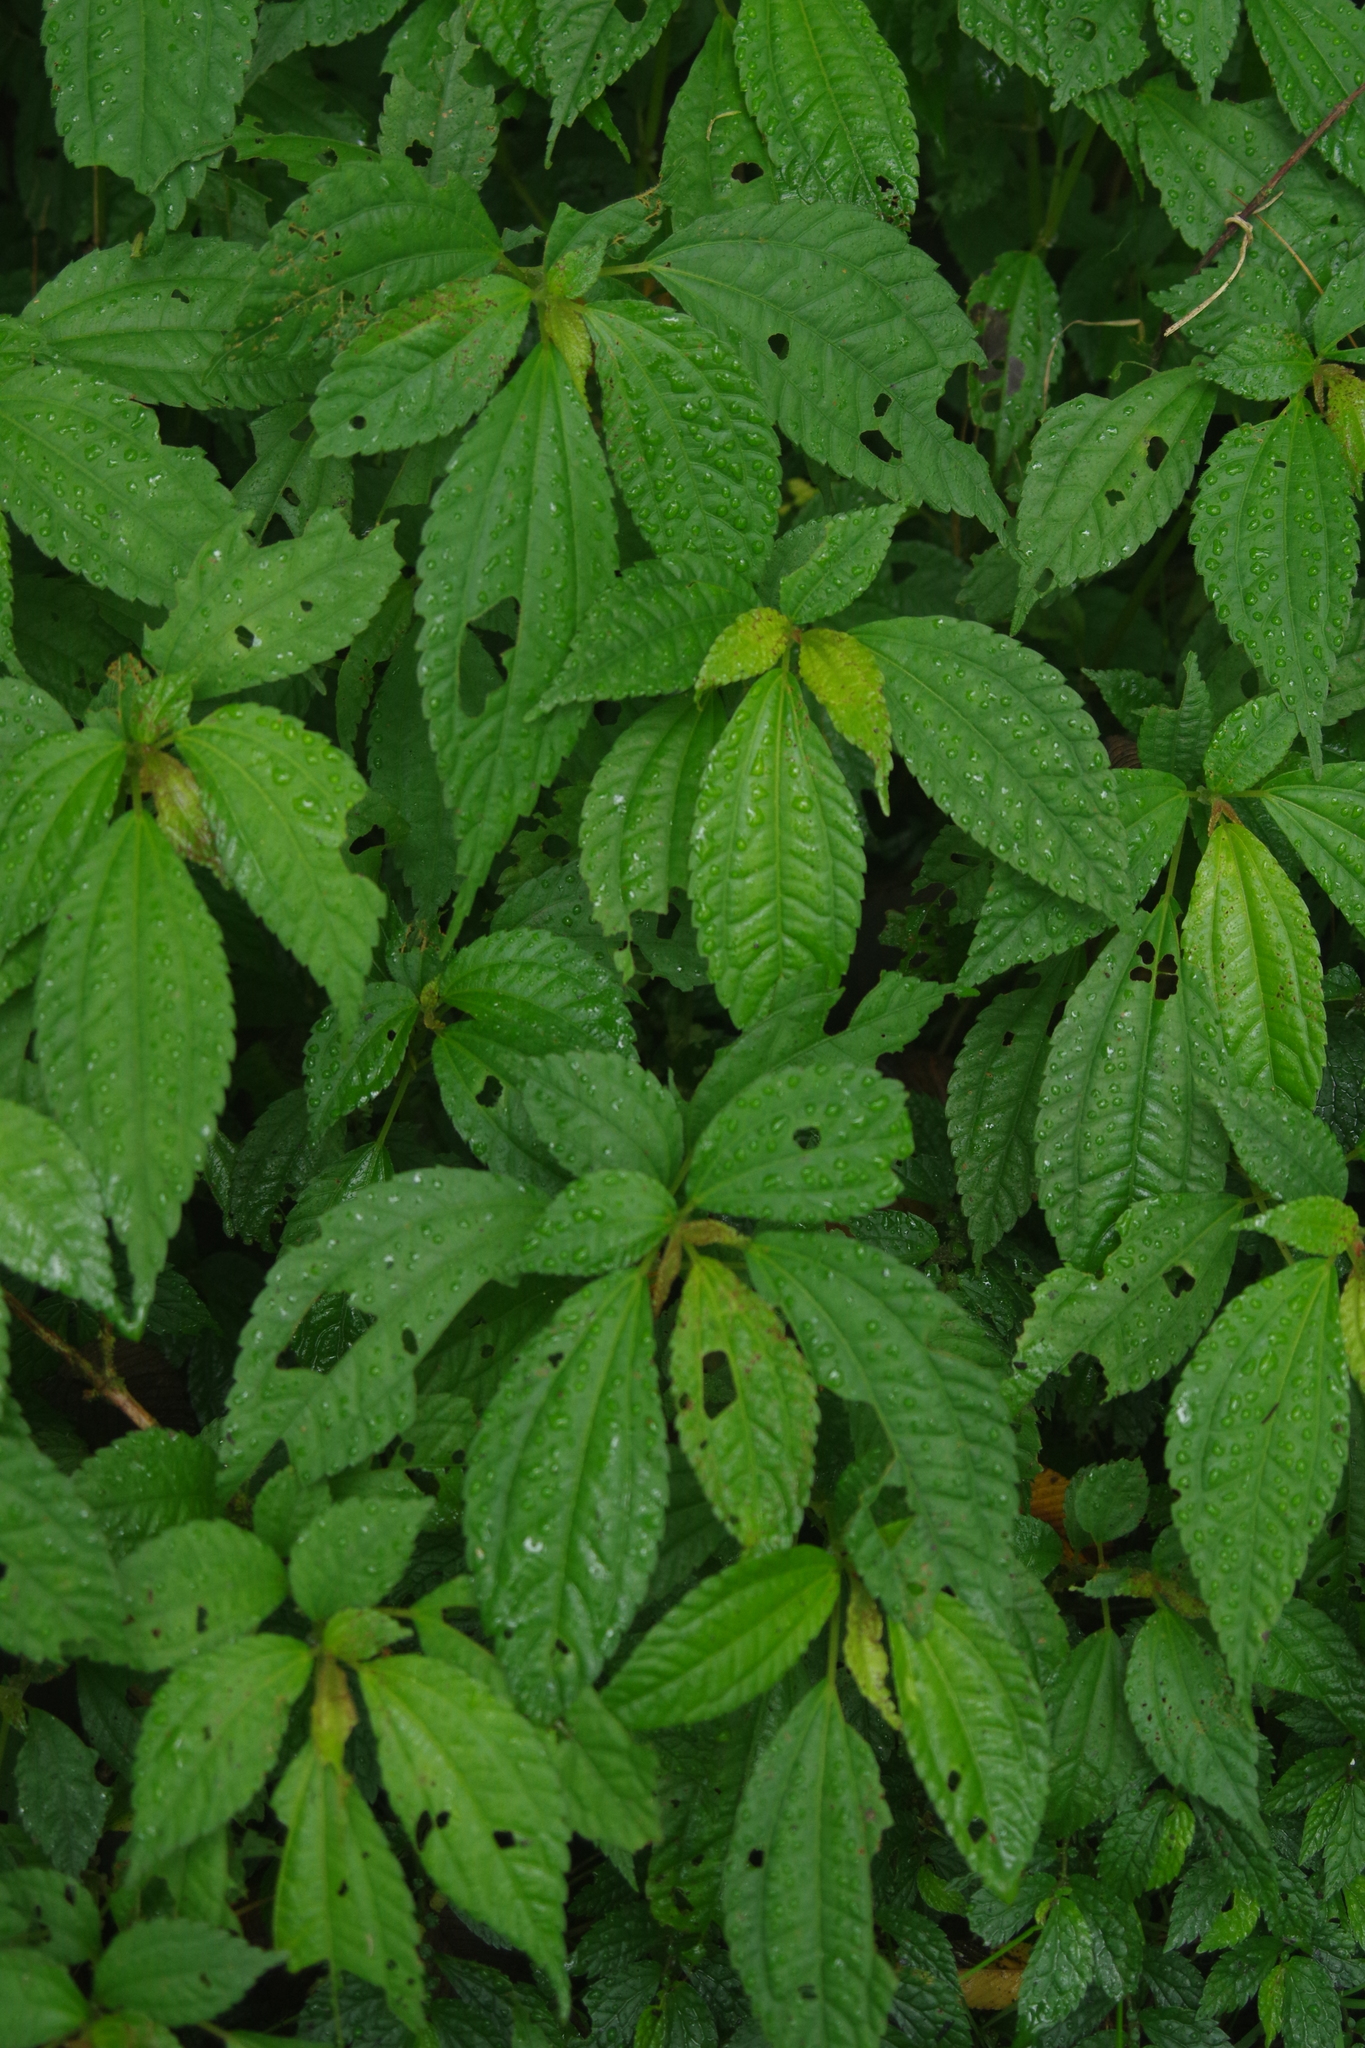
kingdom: Plantae
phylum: Tracheophyta
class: Magnoliopsida
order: Rosales
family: Urticaceae
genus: Lecanthus
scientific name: Lecanthus peduncularis
